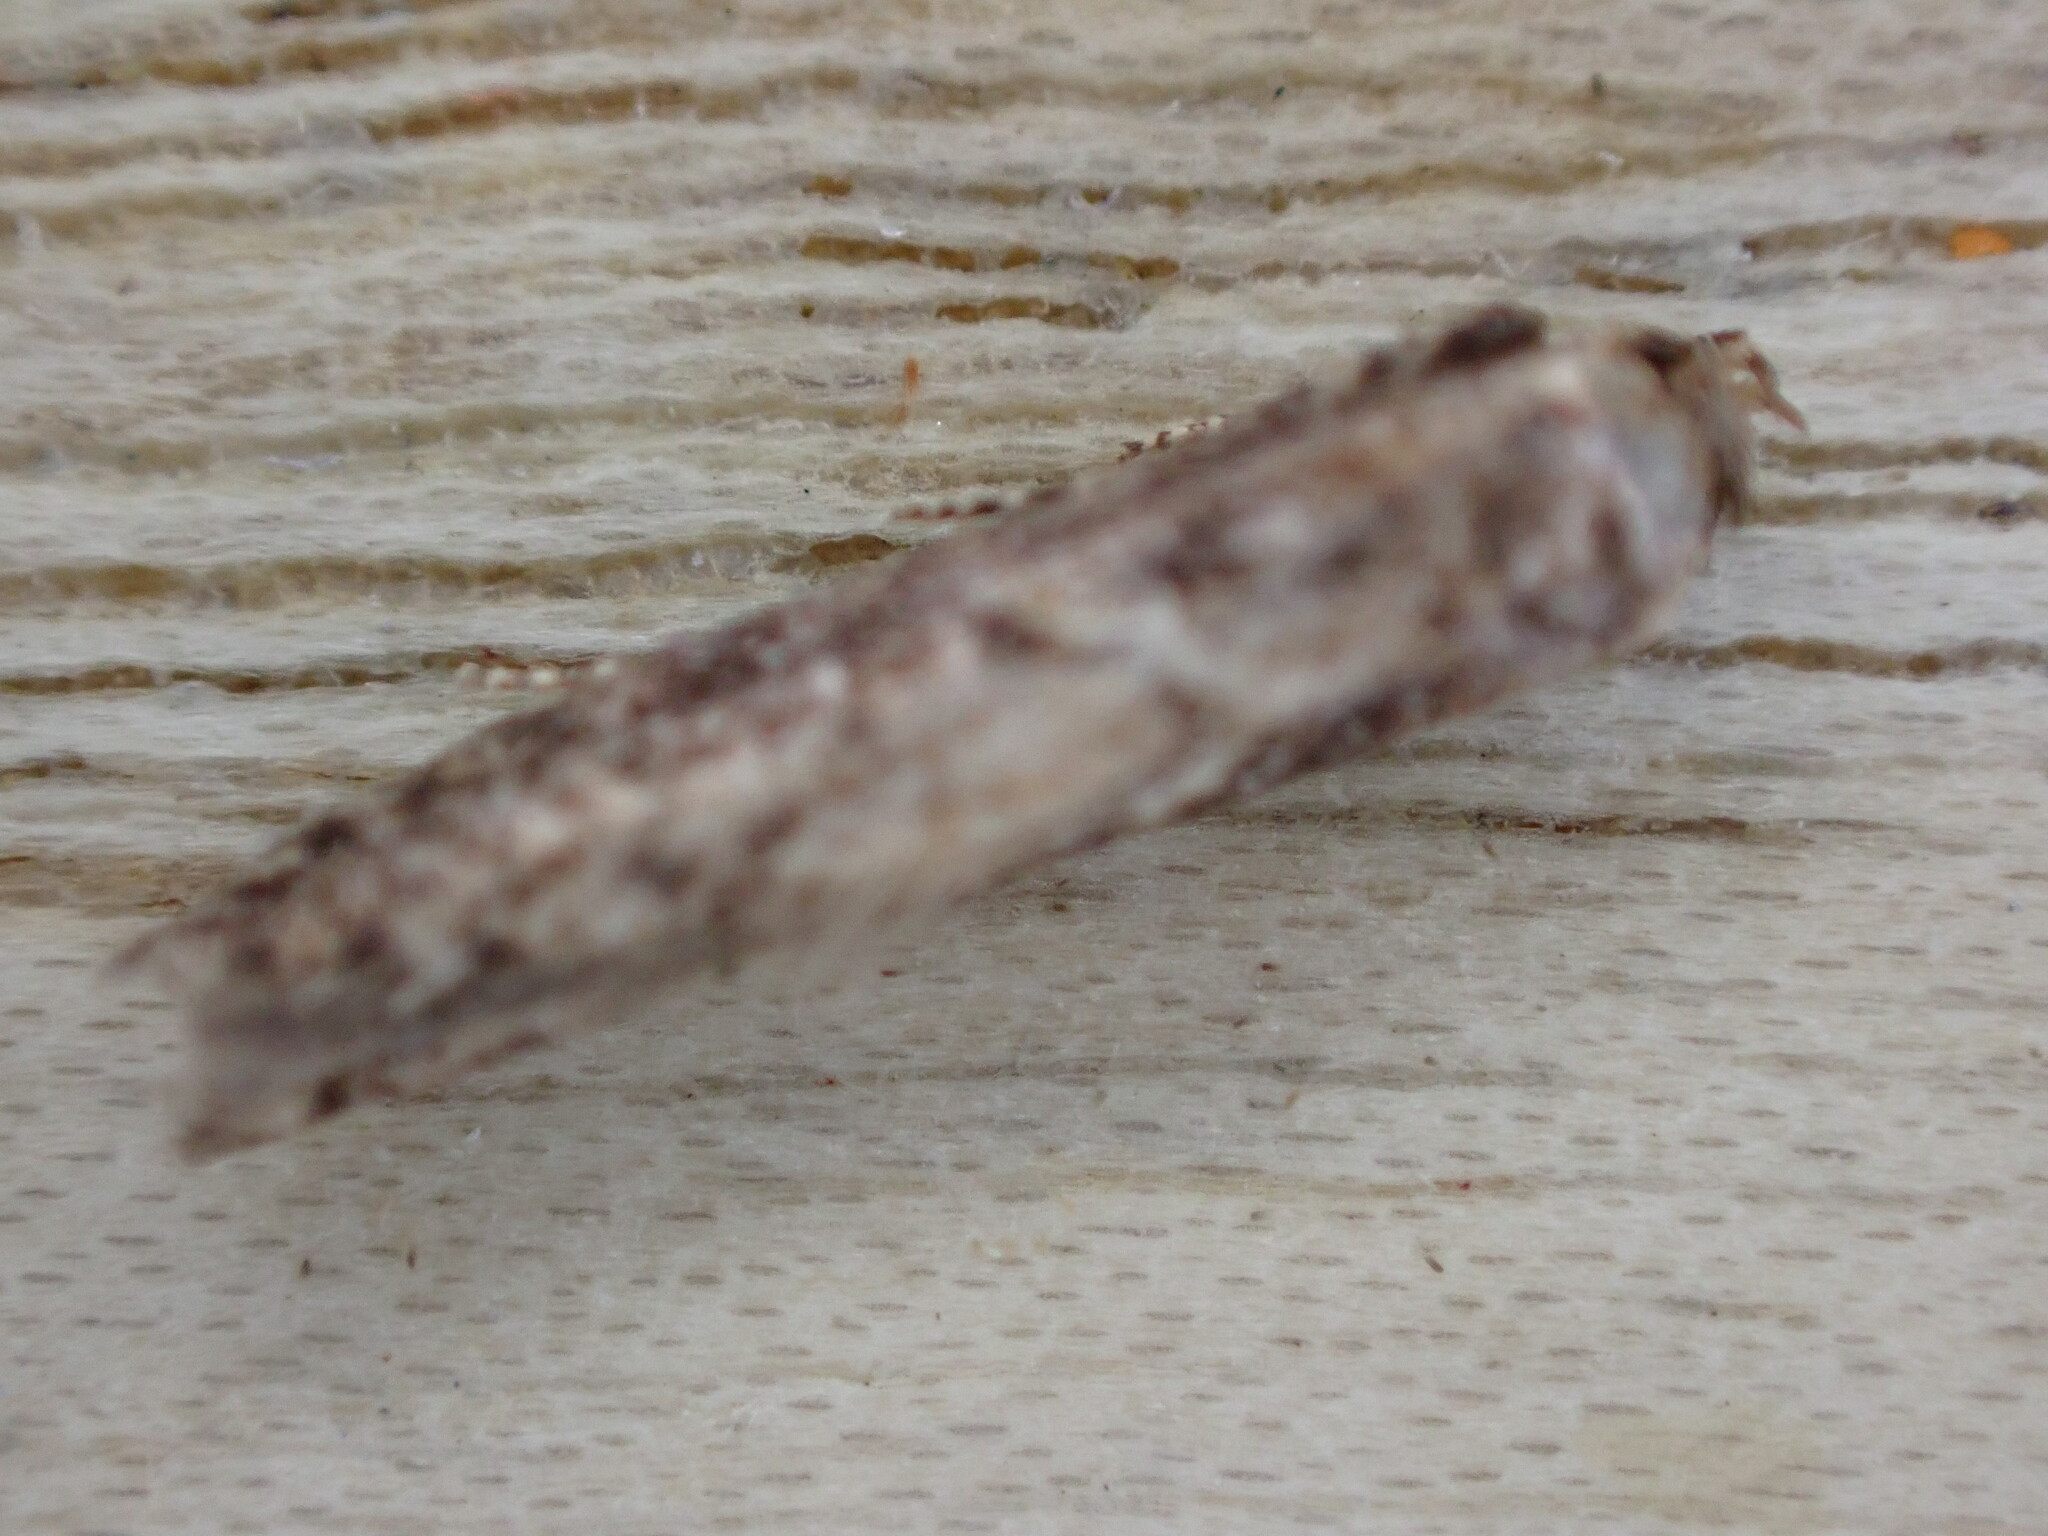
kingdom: Animalia
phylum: Arthropoda
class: Insecta
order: Lepidoptera
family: Blastobasidae
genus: Blastobasis
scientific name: Blastobasis adustella
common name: Dingy dowd
